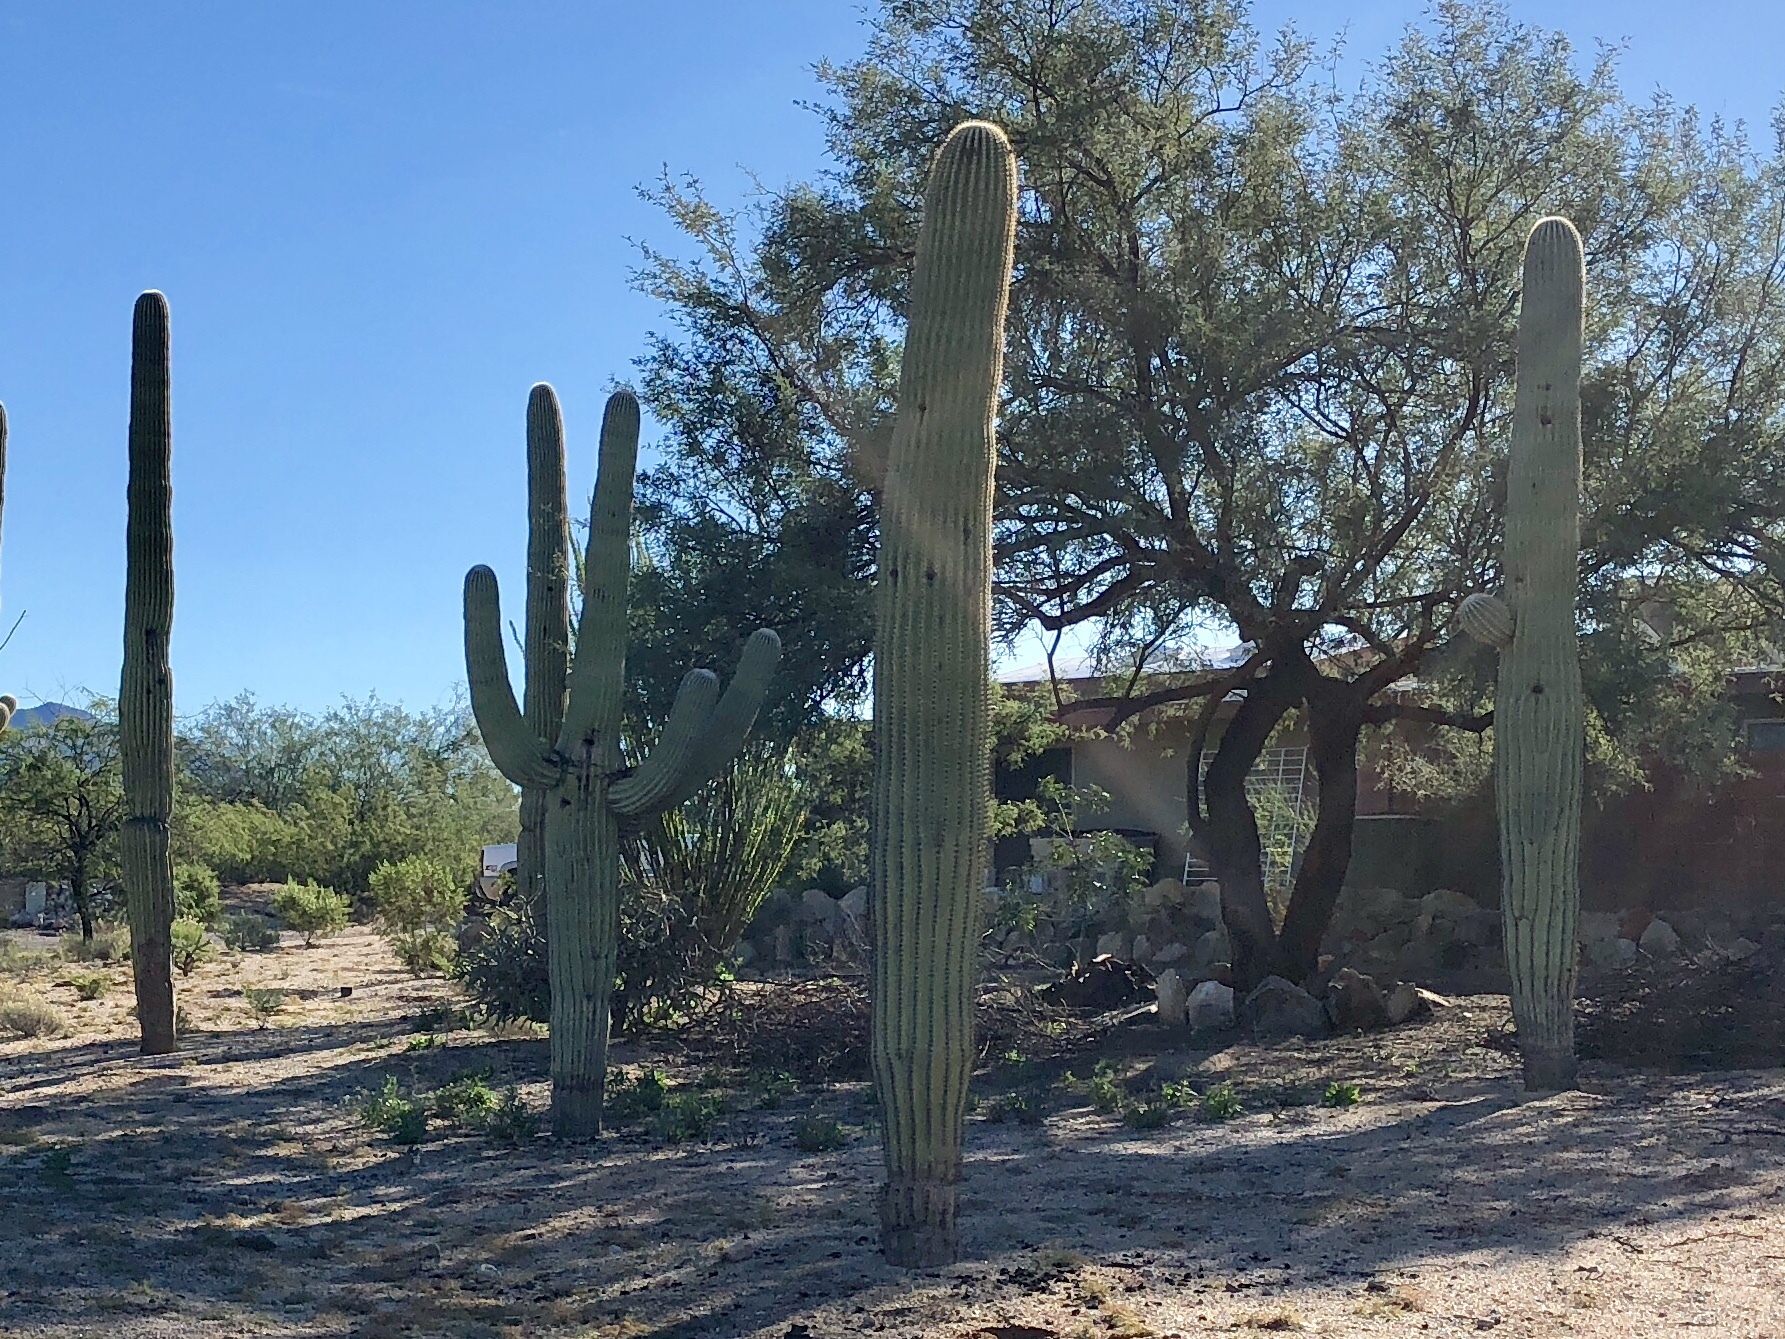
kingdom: Plantae
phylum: Tracheophyta
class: Magnoliopsida
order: Caryophyllales
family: Cactaceae
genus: Carnegiea
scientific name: Carnegiea gigantea
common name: Saguaro
